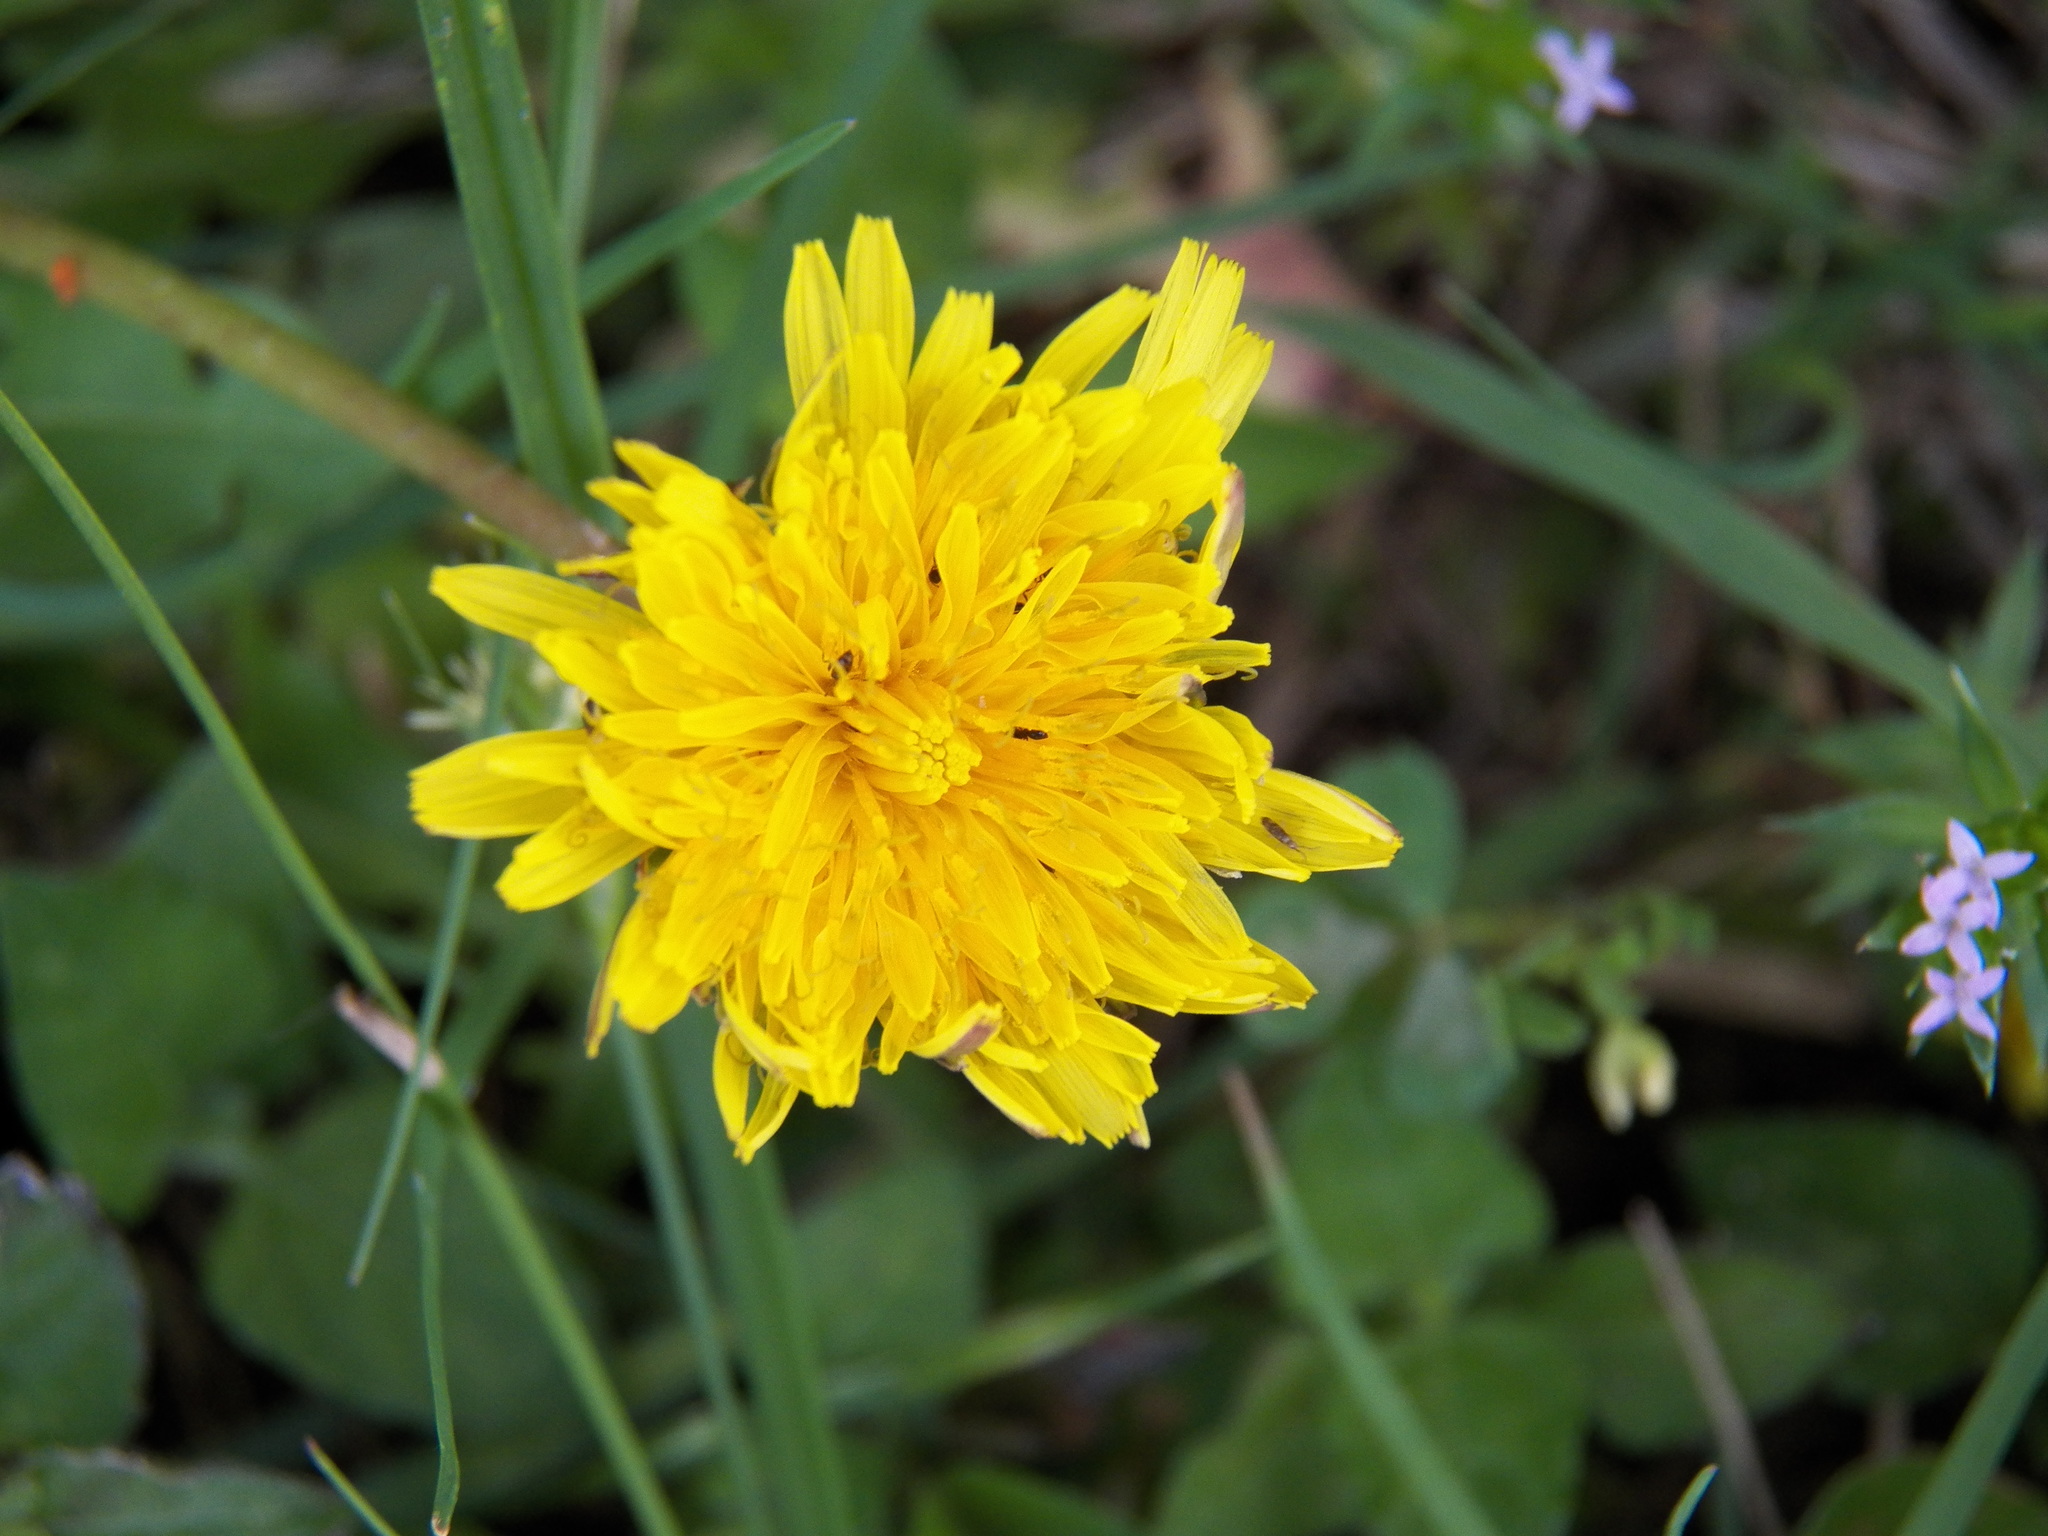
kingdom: Plantae
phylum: Tracheophyta
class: Magnoliopsida
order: Asterales
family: Asteraceae
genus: Taraxacum
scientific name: Taraxacum officinale
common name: Common dandelion
